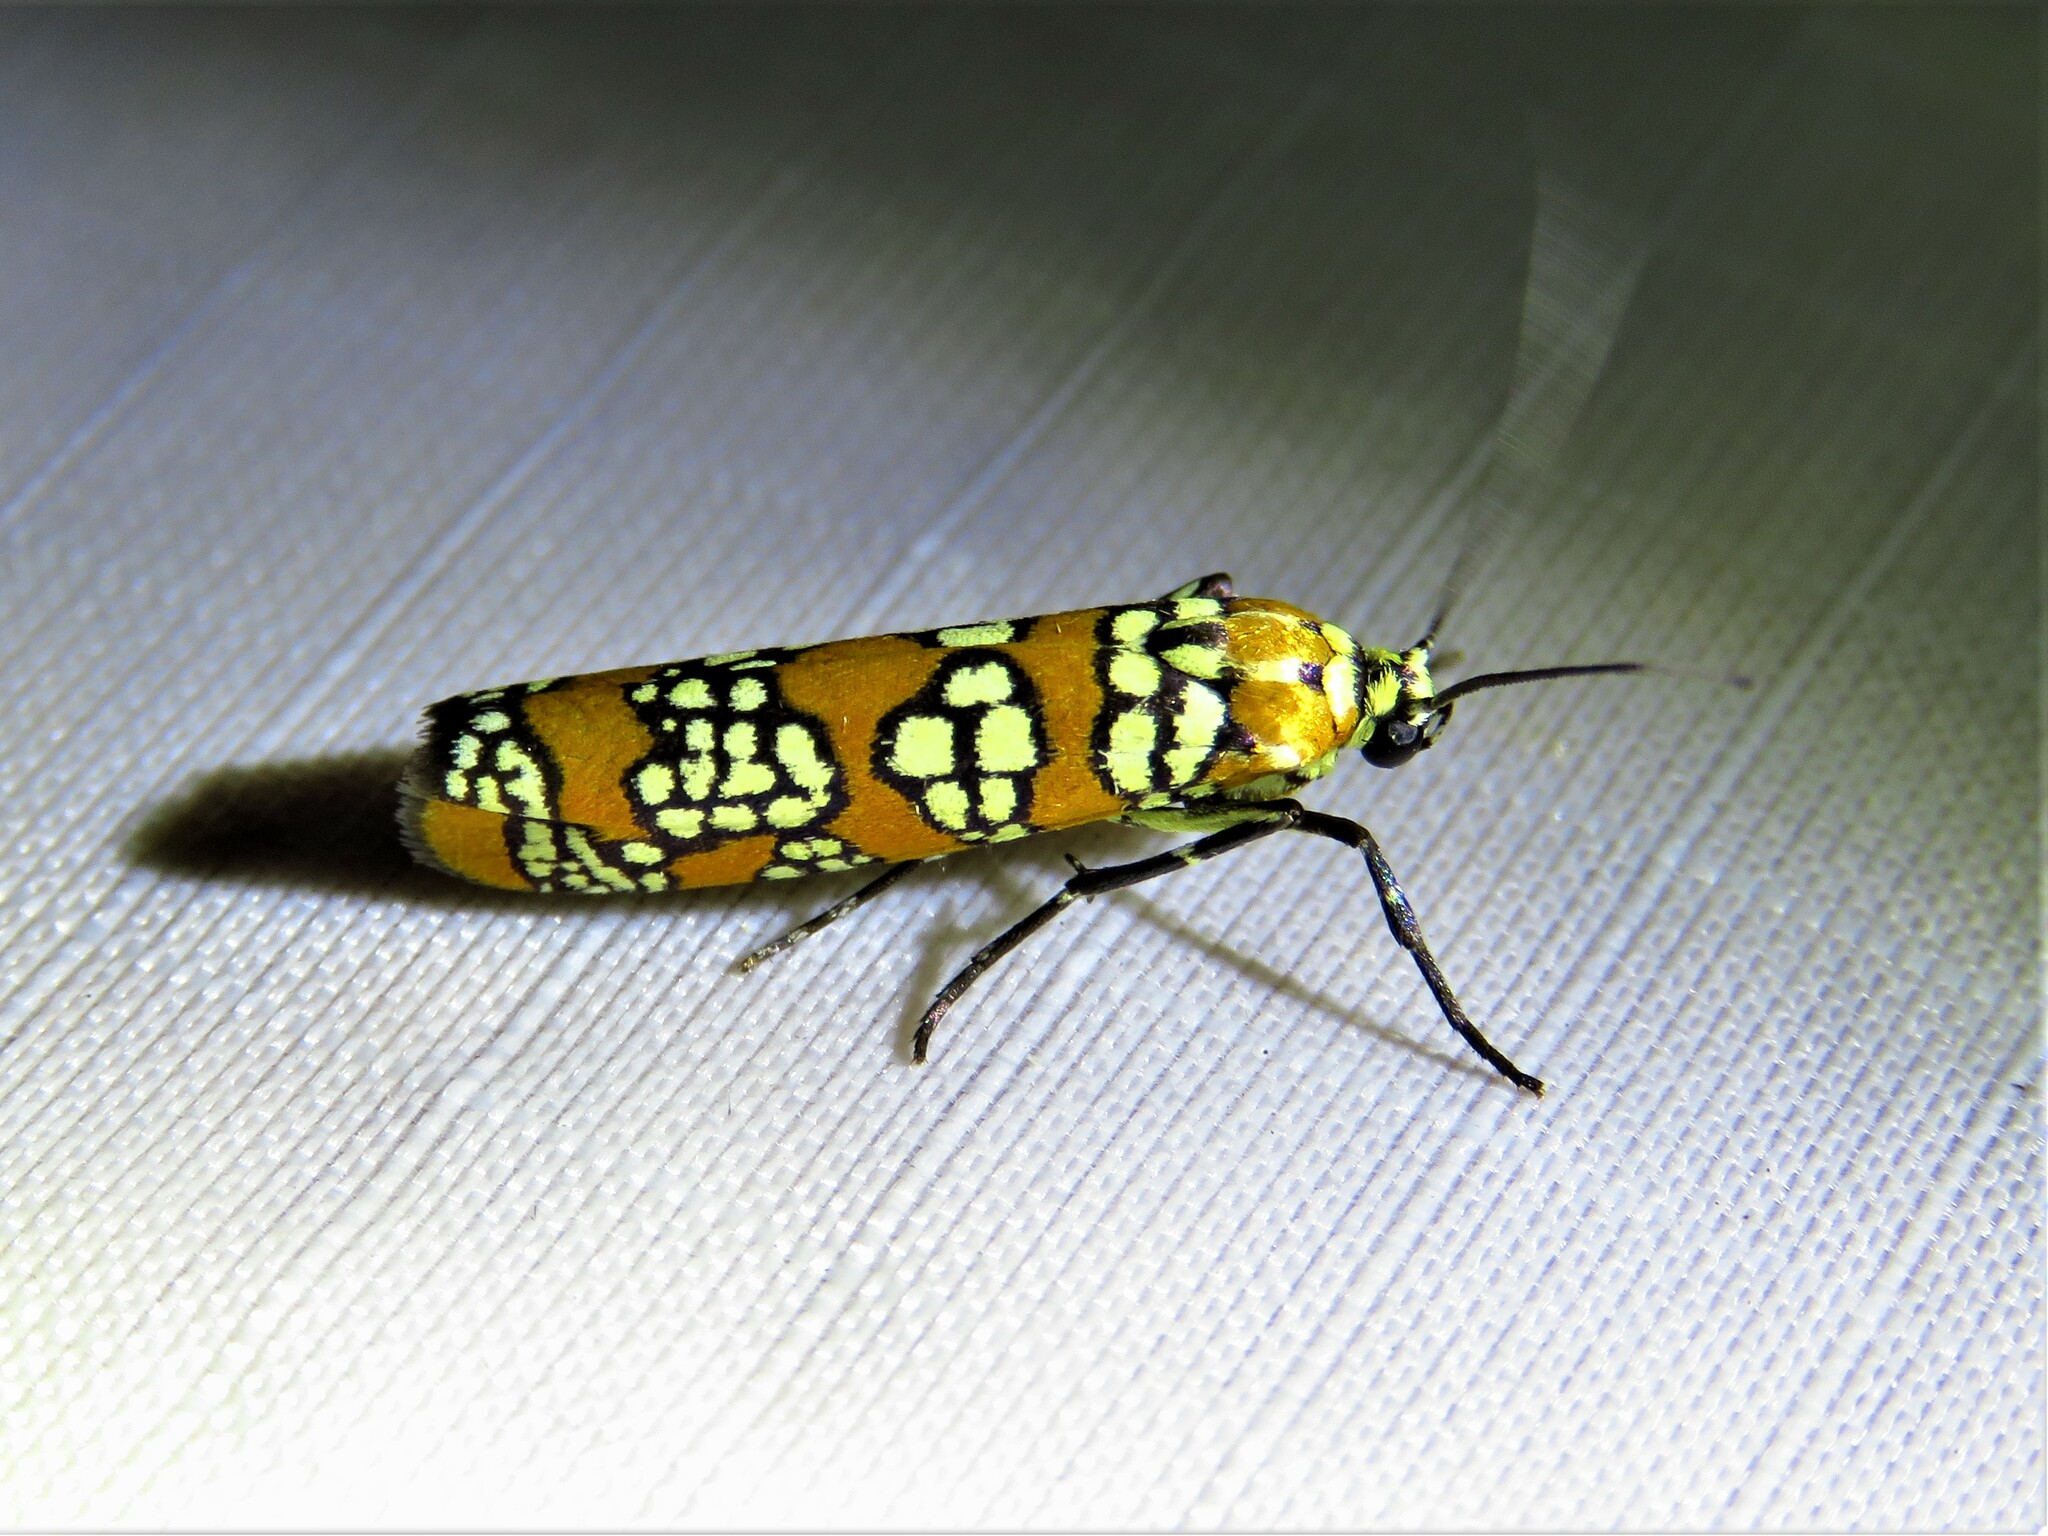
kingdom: Animalia
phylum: Arthropoda
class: Insecta
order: Lepidoptera
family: Attevidae
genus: Atteva
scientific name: Atteva punctella
